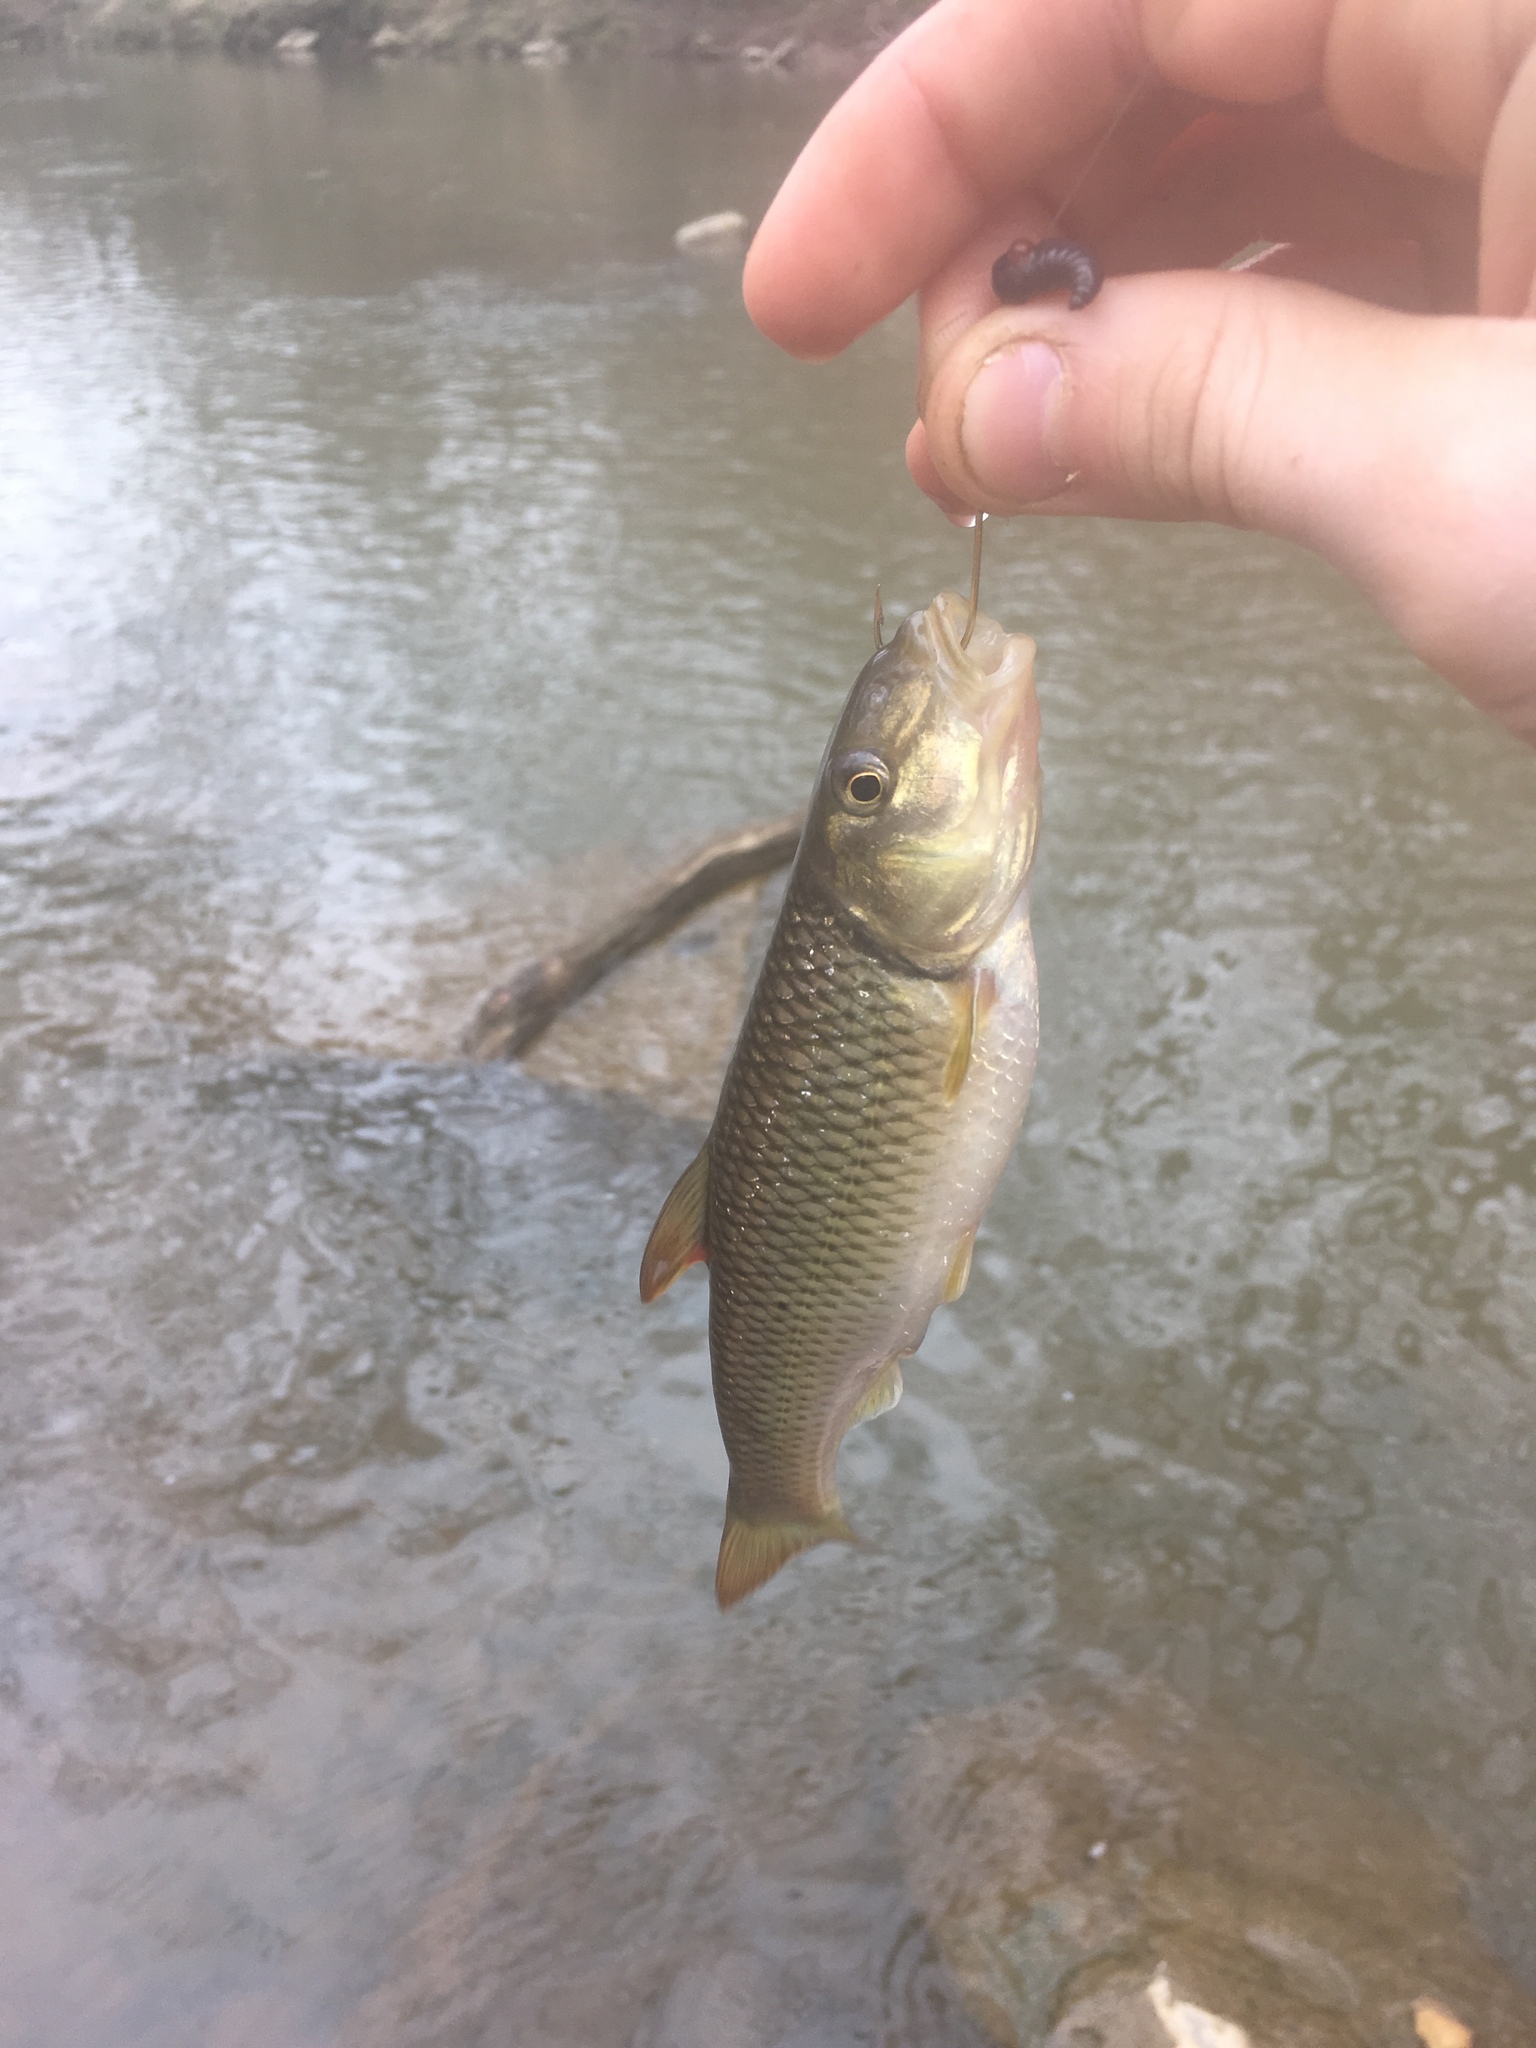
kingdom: Animalia
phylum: Chordata
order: Cypriniformes
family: Cyprinidae
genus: Nocomis
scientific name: Nocomis raneyi
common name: Bull chub
